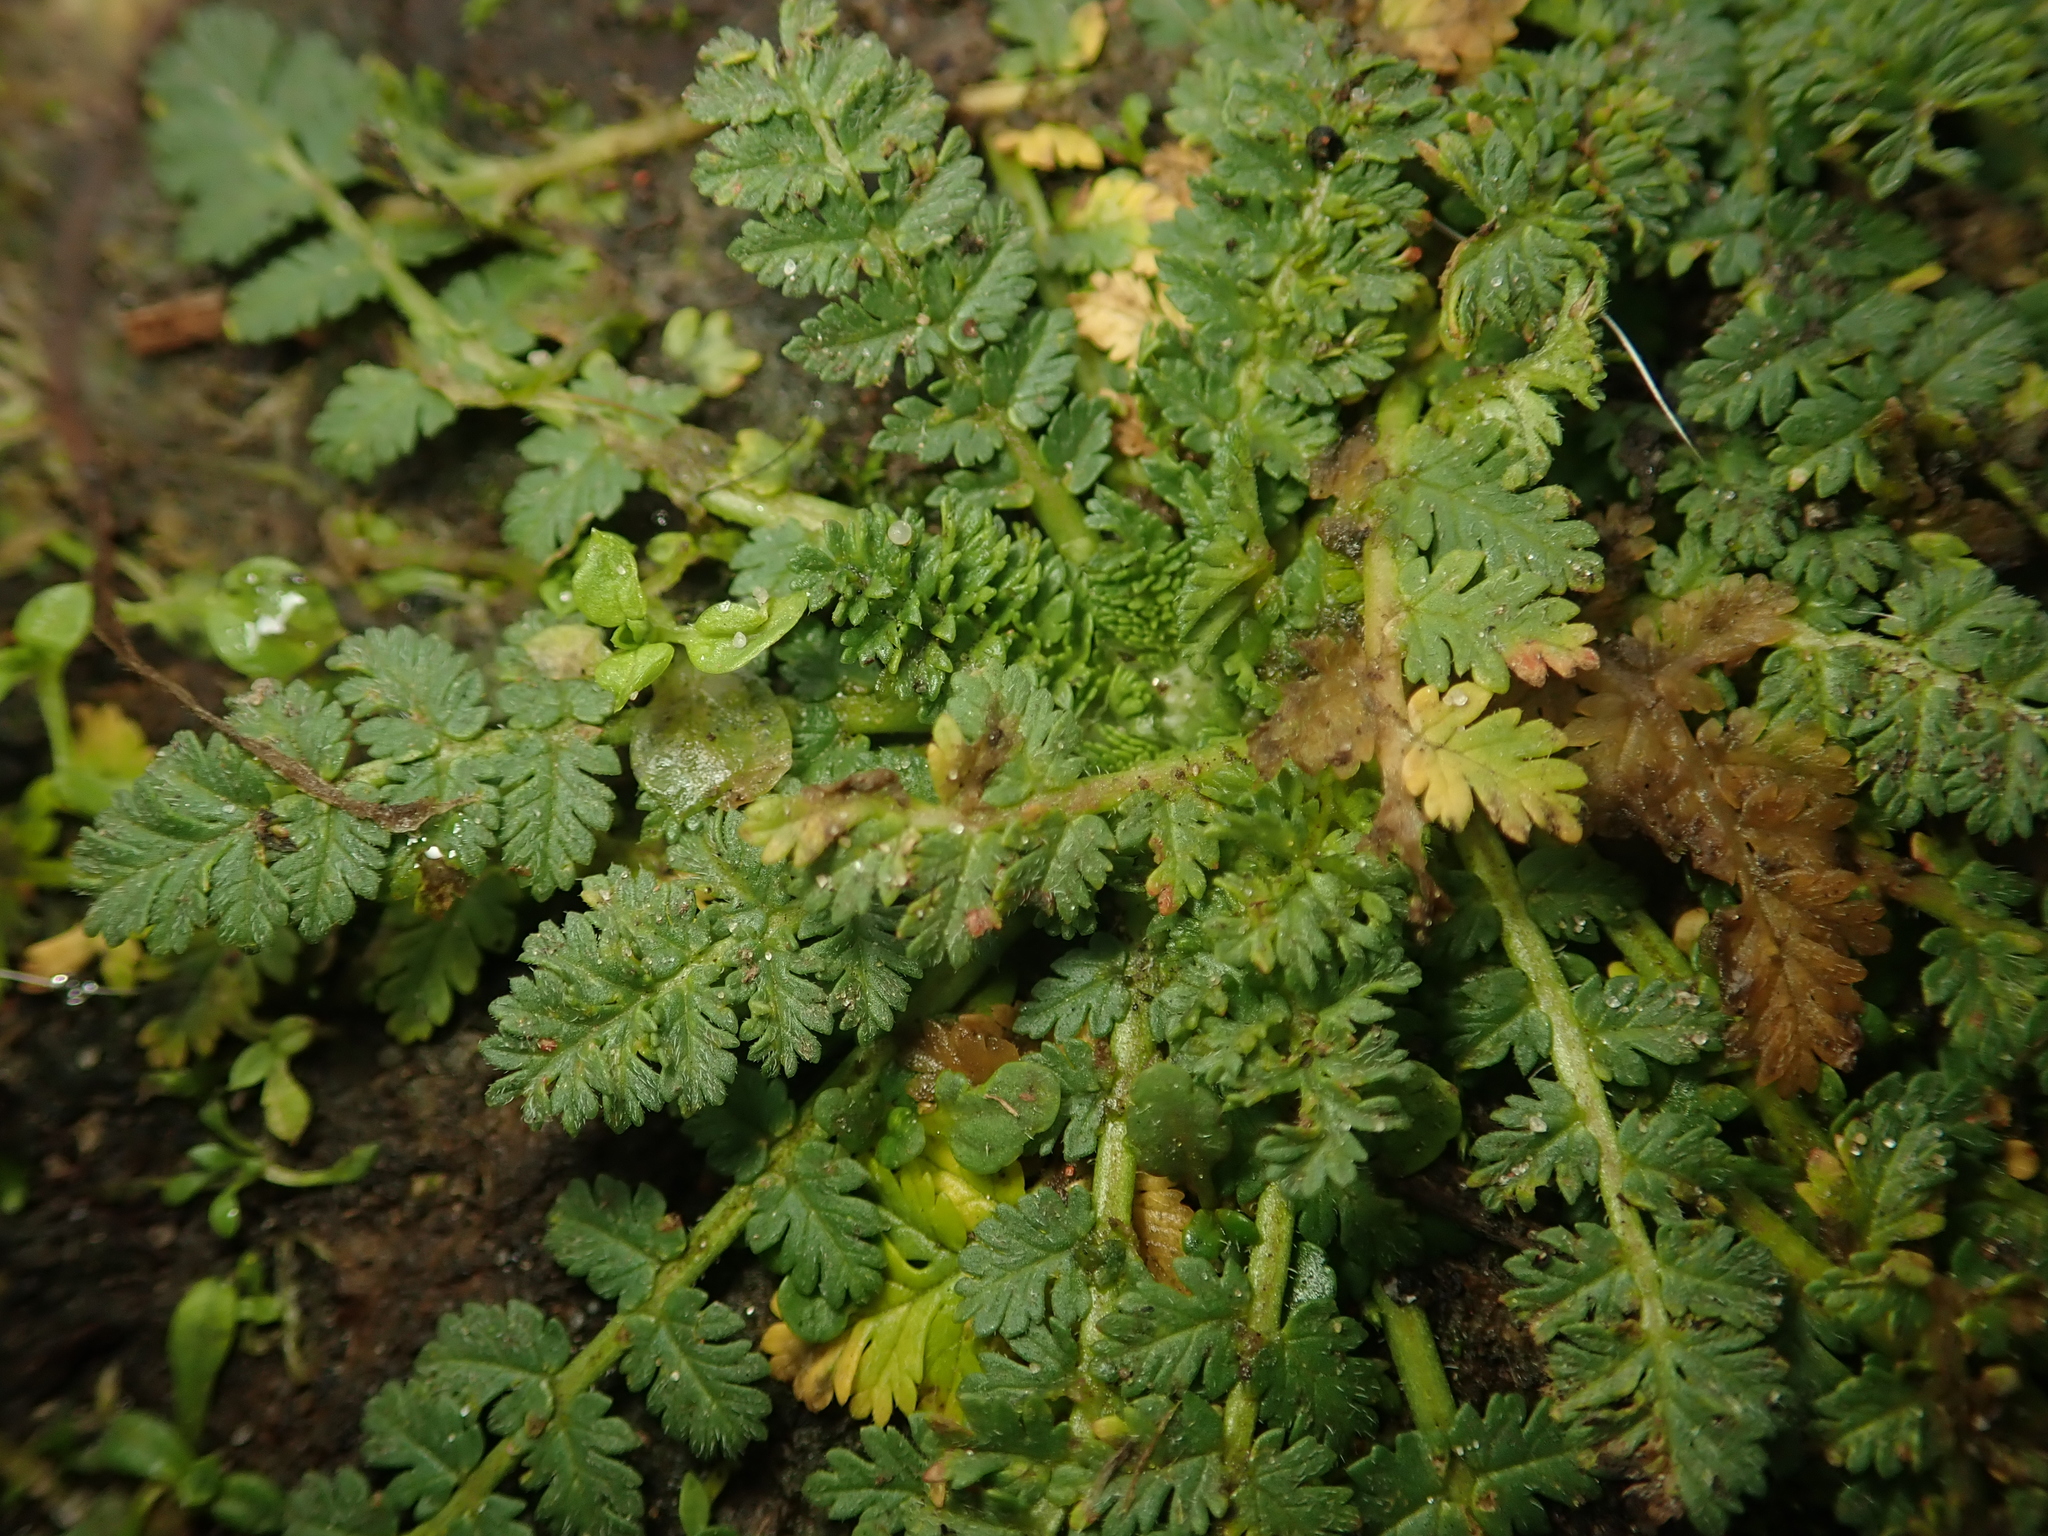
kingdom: Plantae
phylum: Tracheophyta
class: Magnoliopsida
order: Geraniales
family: Geraniaceae
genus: Erodium
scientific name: Erodium cicutarium
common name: Common stork's-bill
